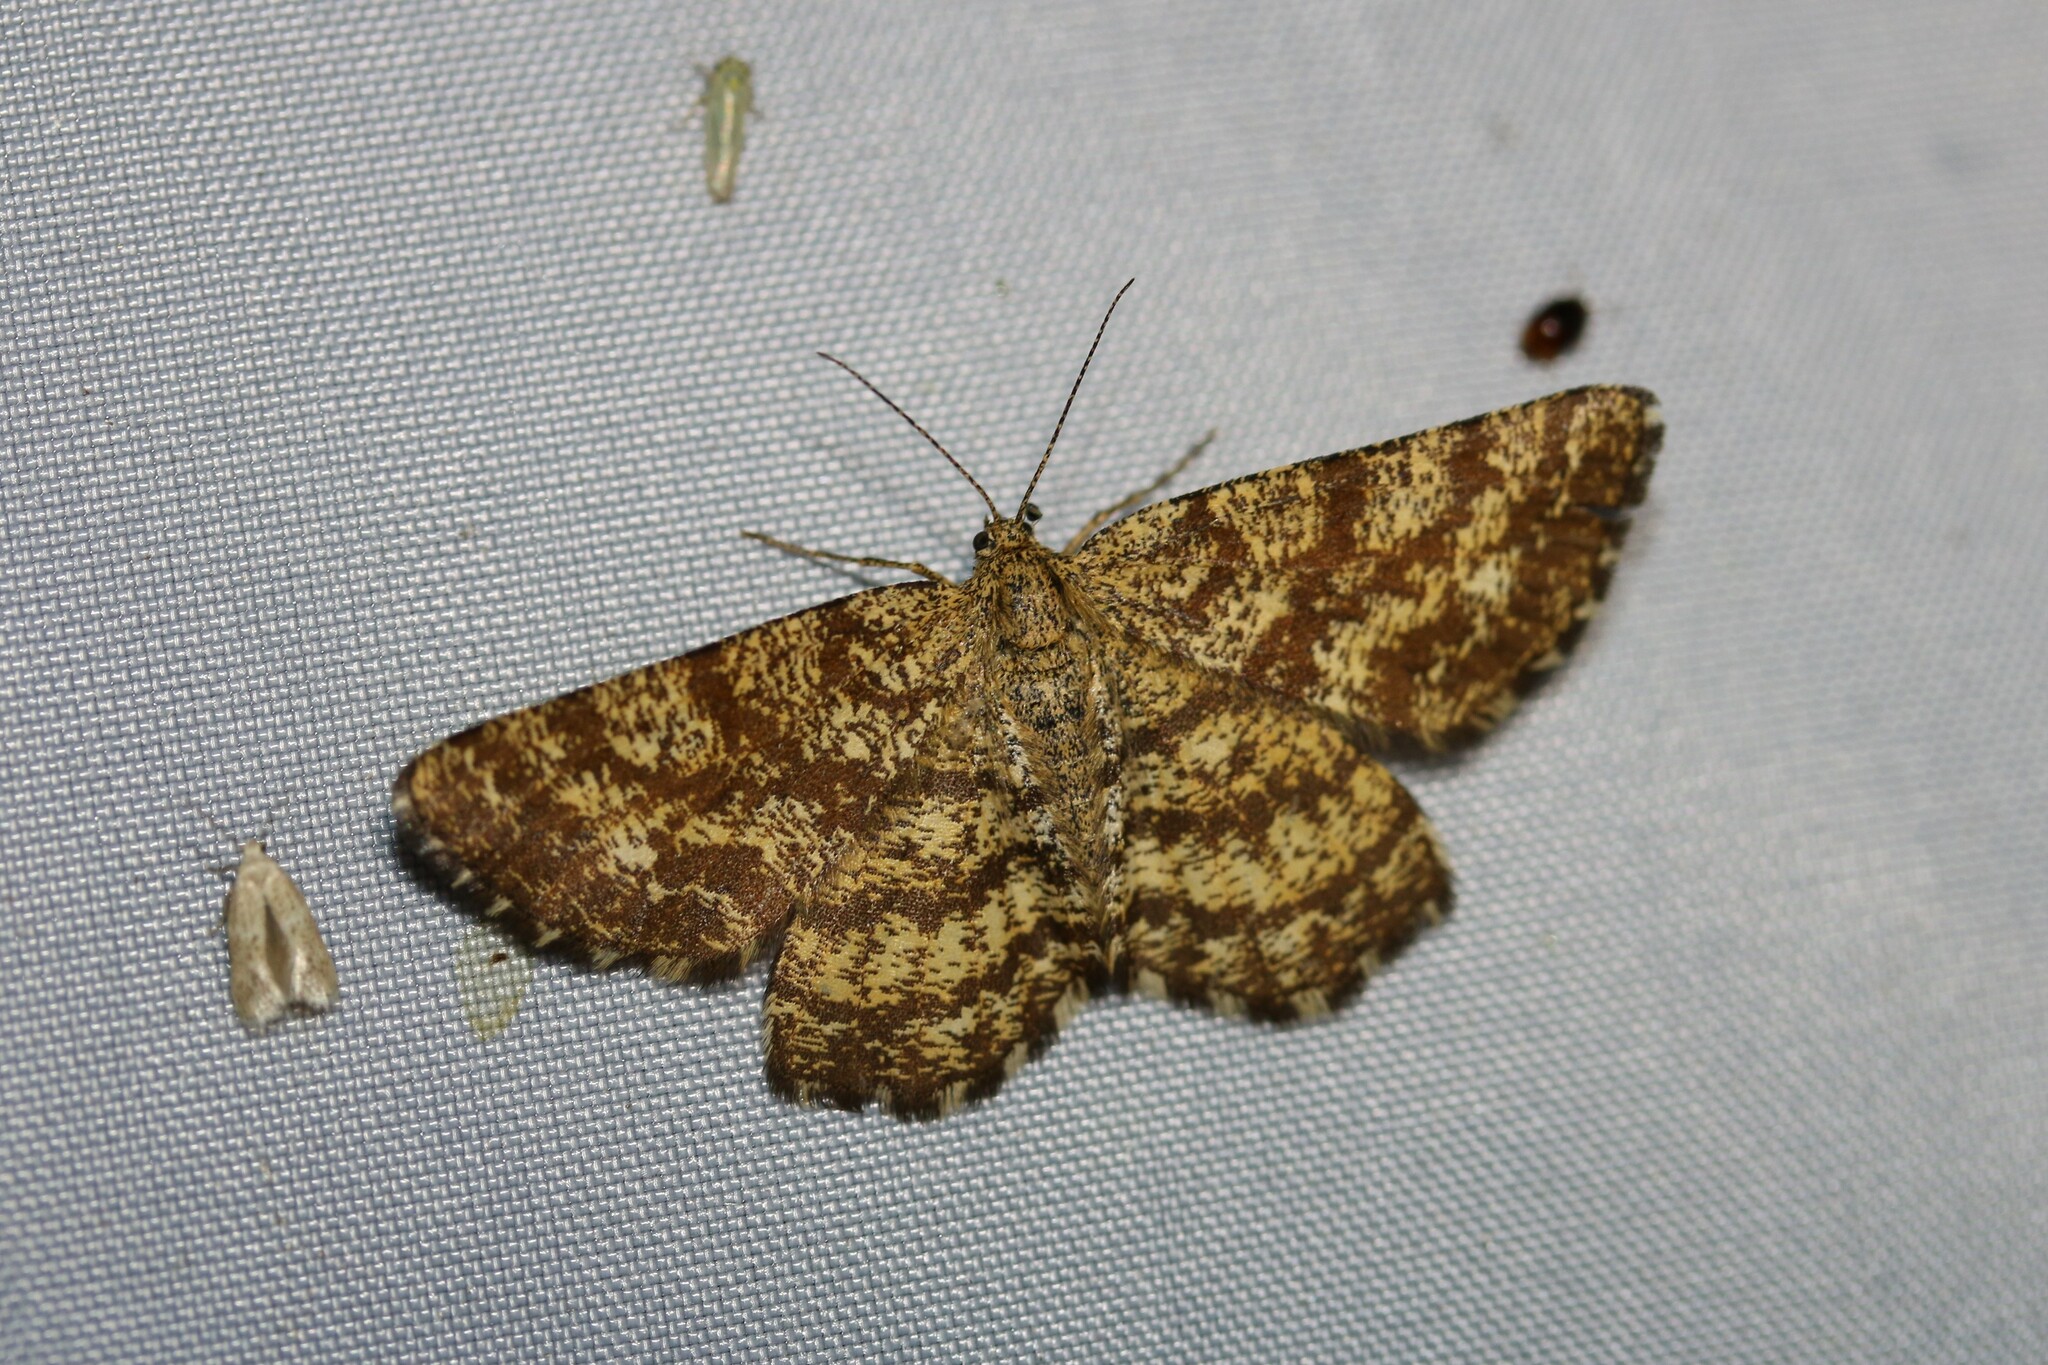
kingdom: Animalia
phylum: Arthropoda
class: Insecta
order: Lepidoptera
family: Geometridae
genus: Ematurga
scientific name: Ematurga atomaria
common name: Common heath
